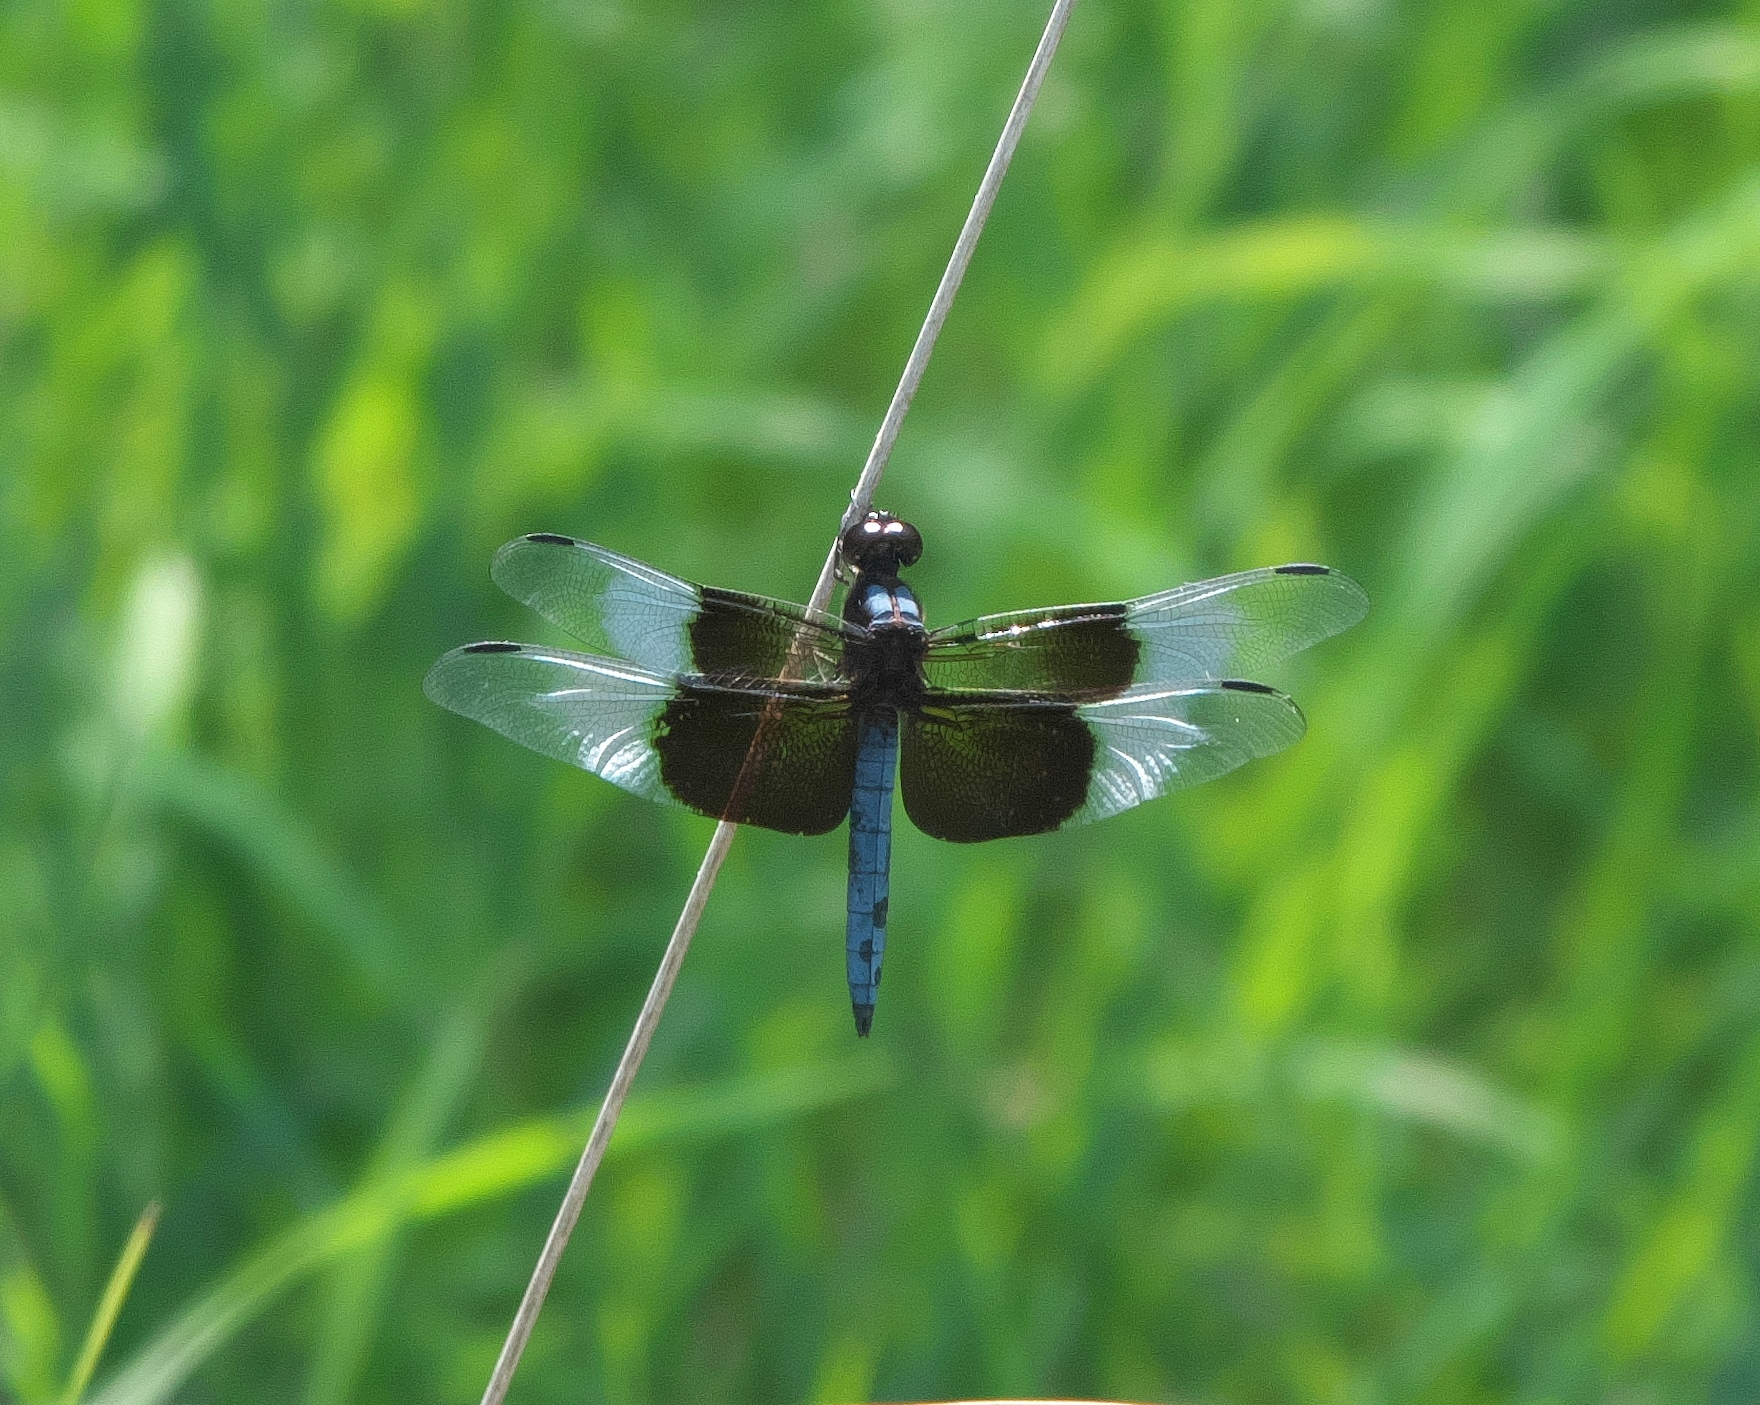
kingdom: Animalia
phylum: Arthropoda
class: Insecta
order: Odonata
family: Libellulidae
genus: Libellula
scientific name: Libellula luctuosa
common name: Widow skimmer
